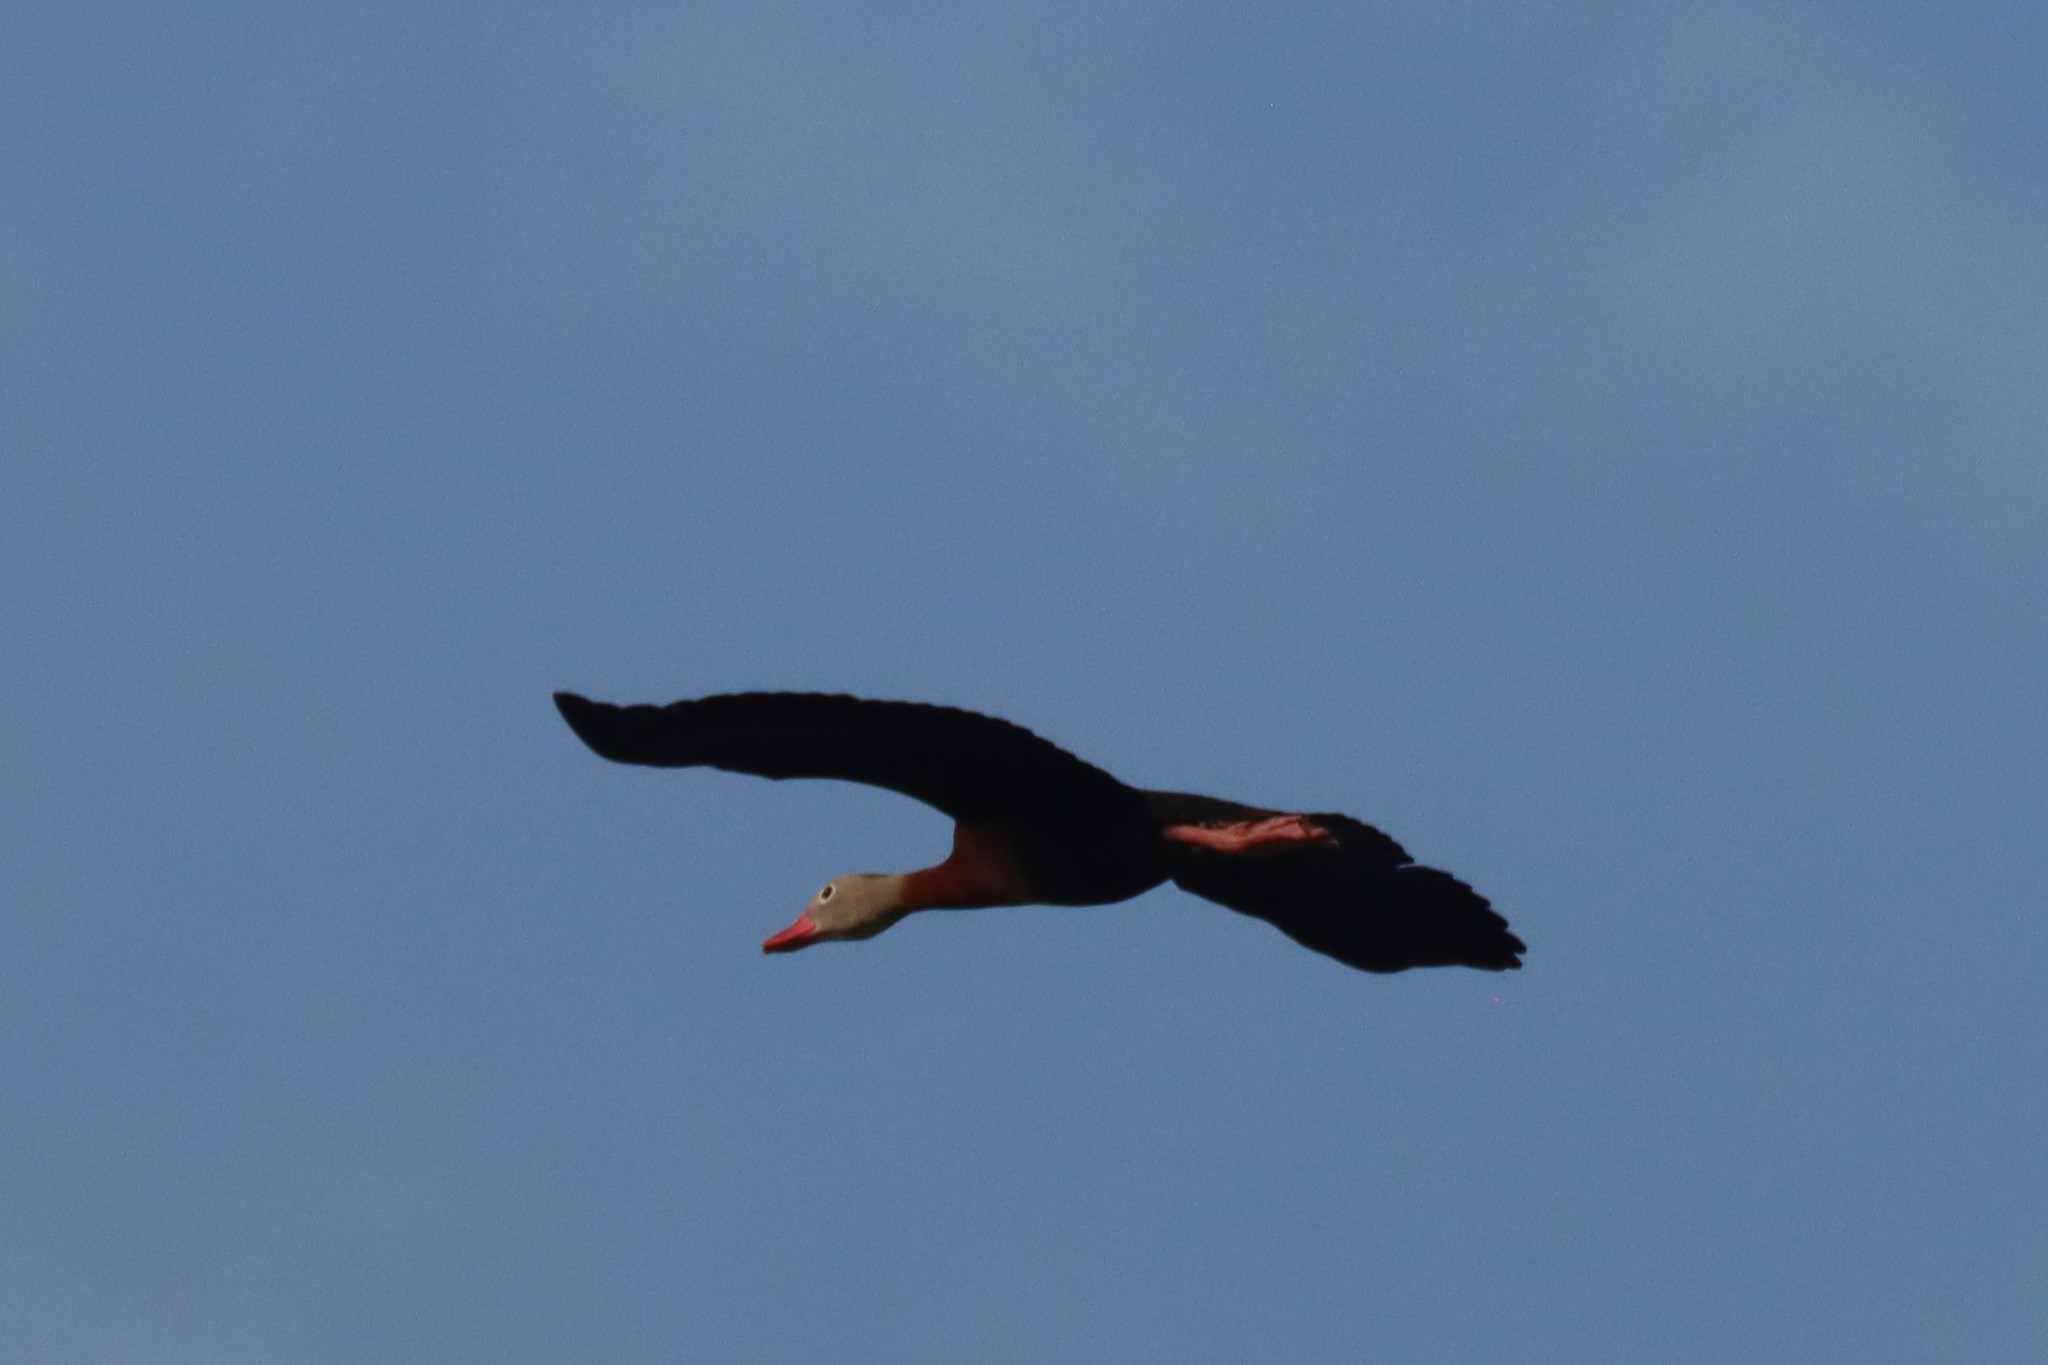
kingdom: Animalia
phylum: Chordata
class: Aves
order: Anseriformes
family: Anatidae
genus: Dendrocygna
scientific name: Dendrocygna autumnalis
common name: Black-bellied whistling duck
